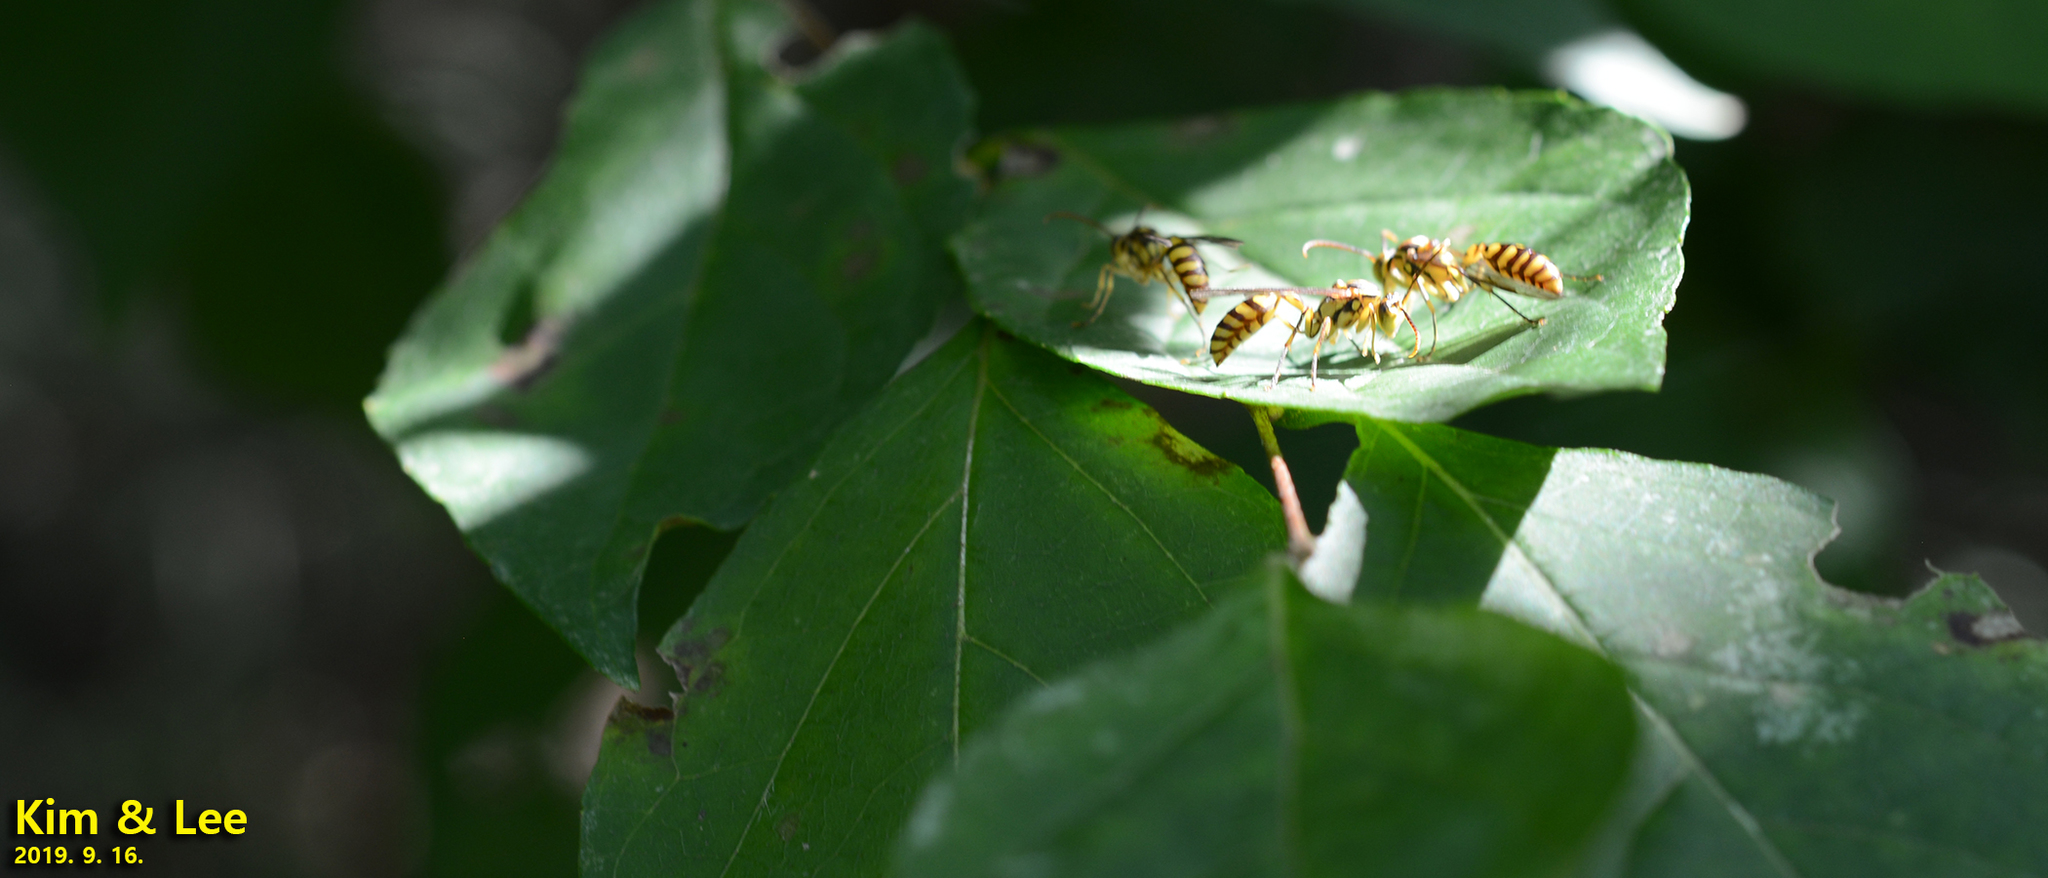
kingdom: Animalia
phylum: Arthropoda
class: Insecta
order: Hymenoptera
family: Vespidae
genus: Parapolybia
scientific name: Parapolybia varia
